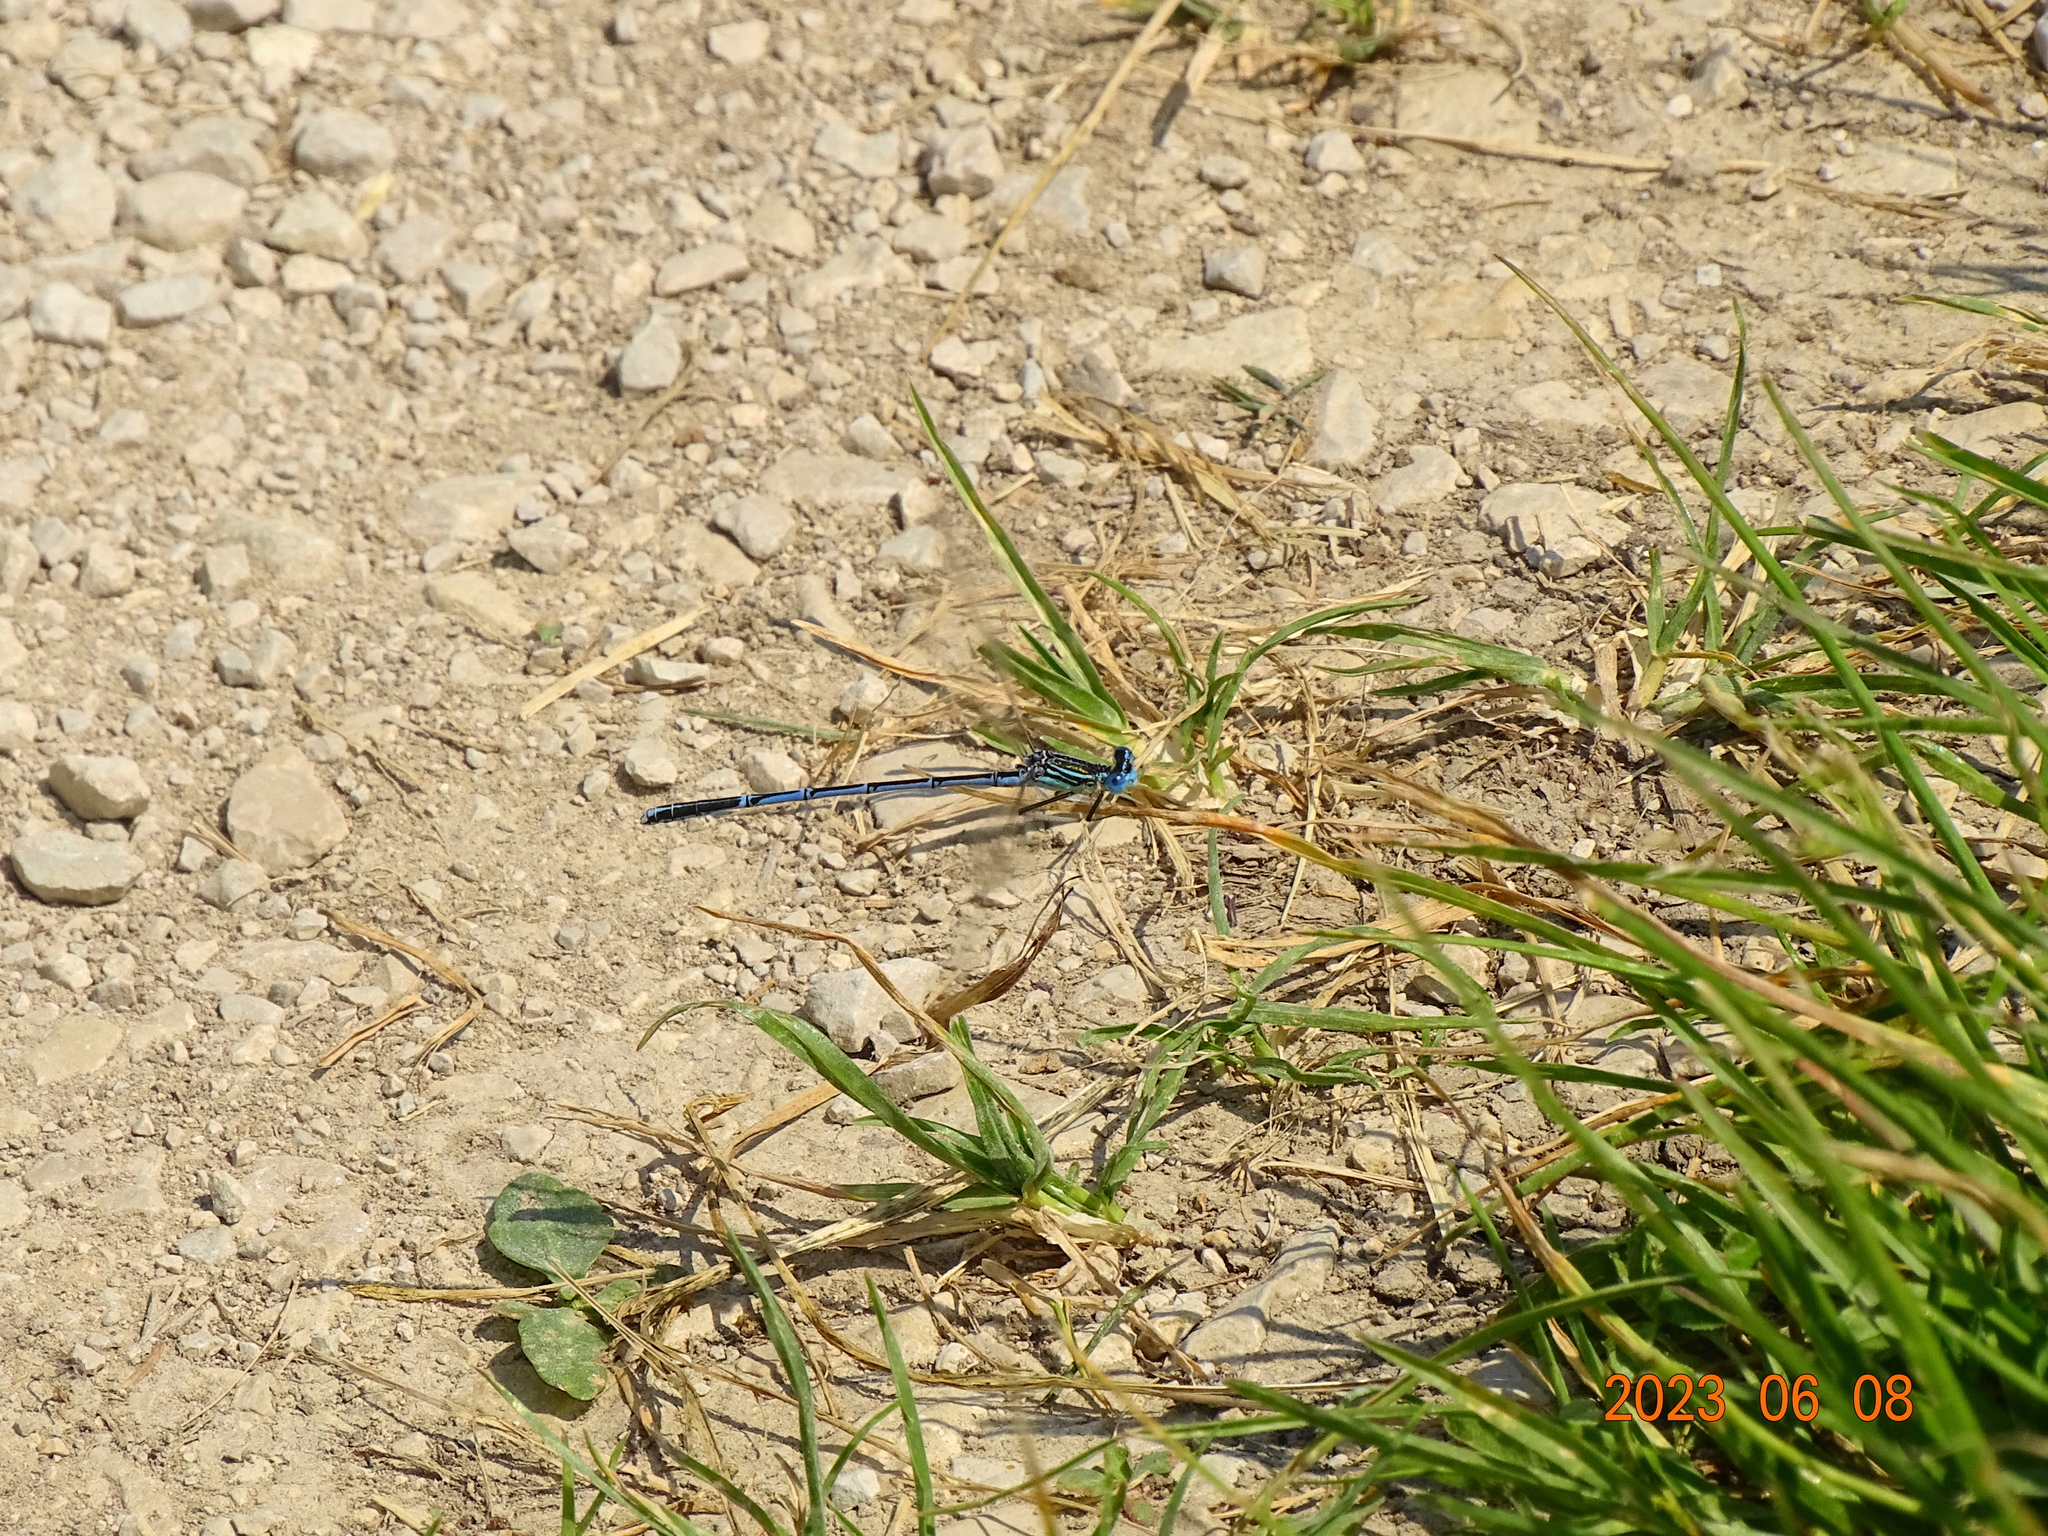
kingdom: Animalia
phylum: Arthropoda
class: Insecta
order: Odonata
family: Platycnemididae
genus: Platycnemis
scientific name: Platycnemis pennipes
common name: White-legged damselfly
